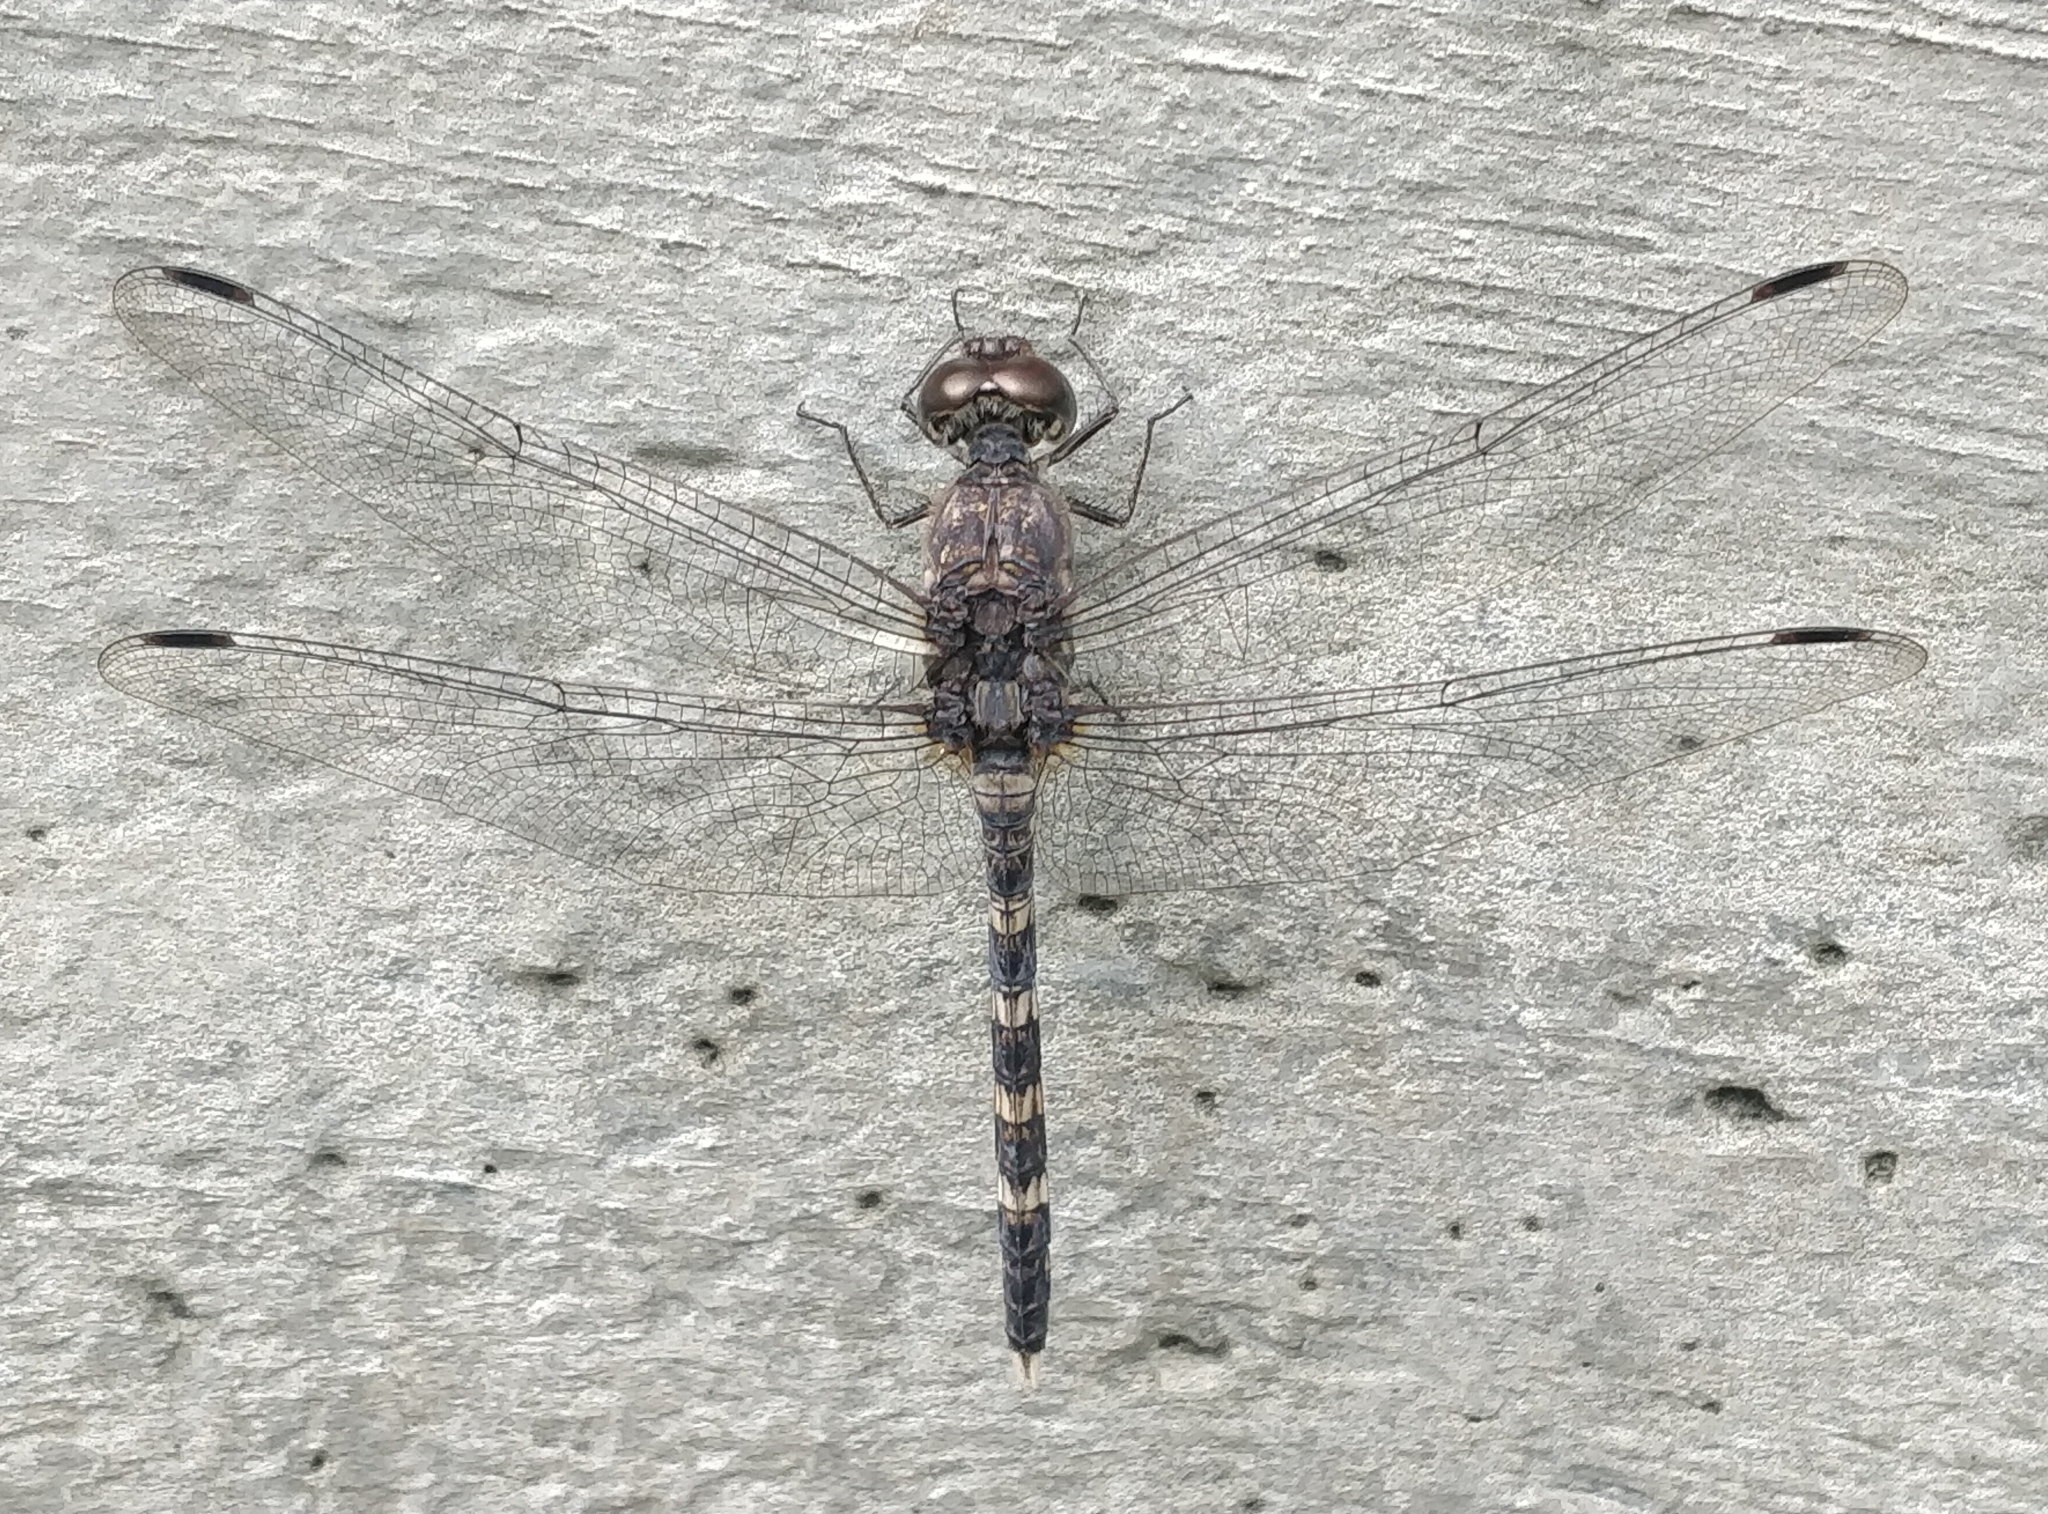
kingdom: Animalia
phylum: Arthropoda
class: Insecta
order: Odonata
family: Libellulidae
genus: Bradinopyga
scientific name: Bradinopyga geminata
